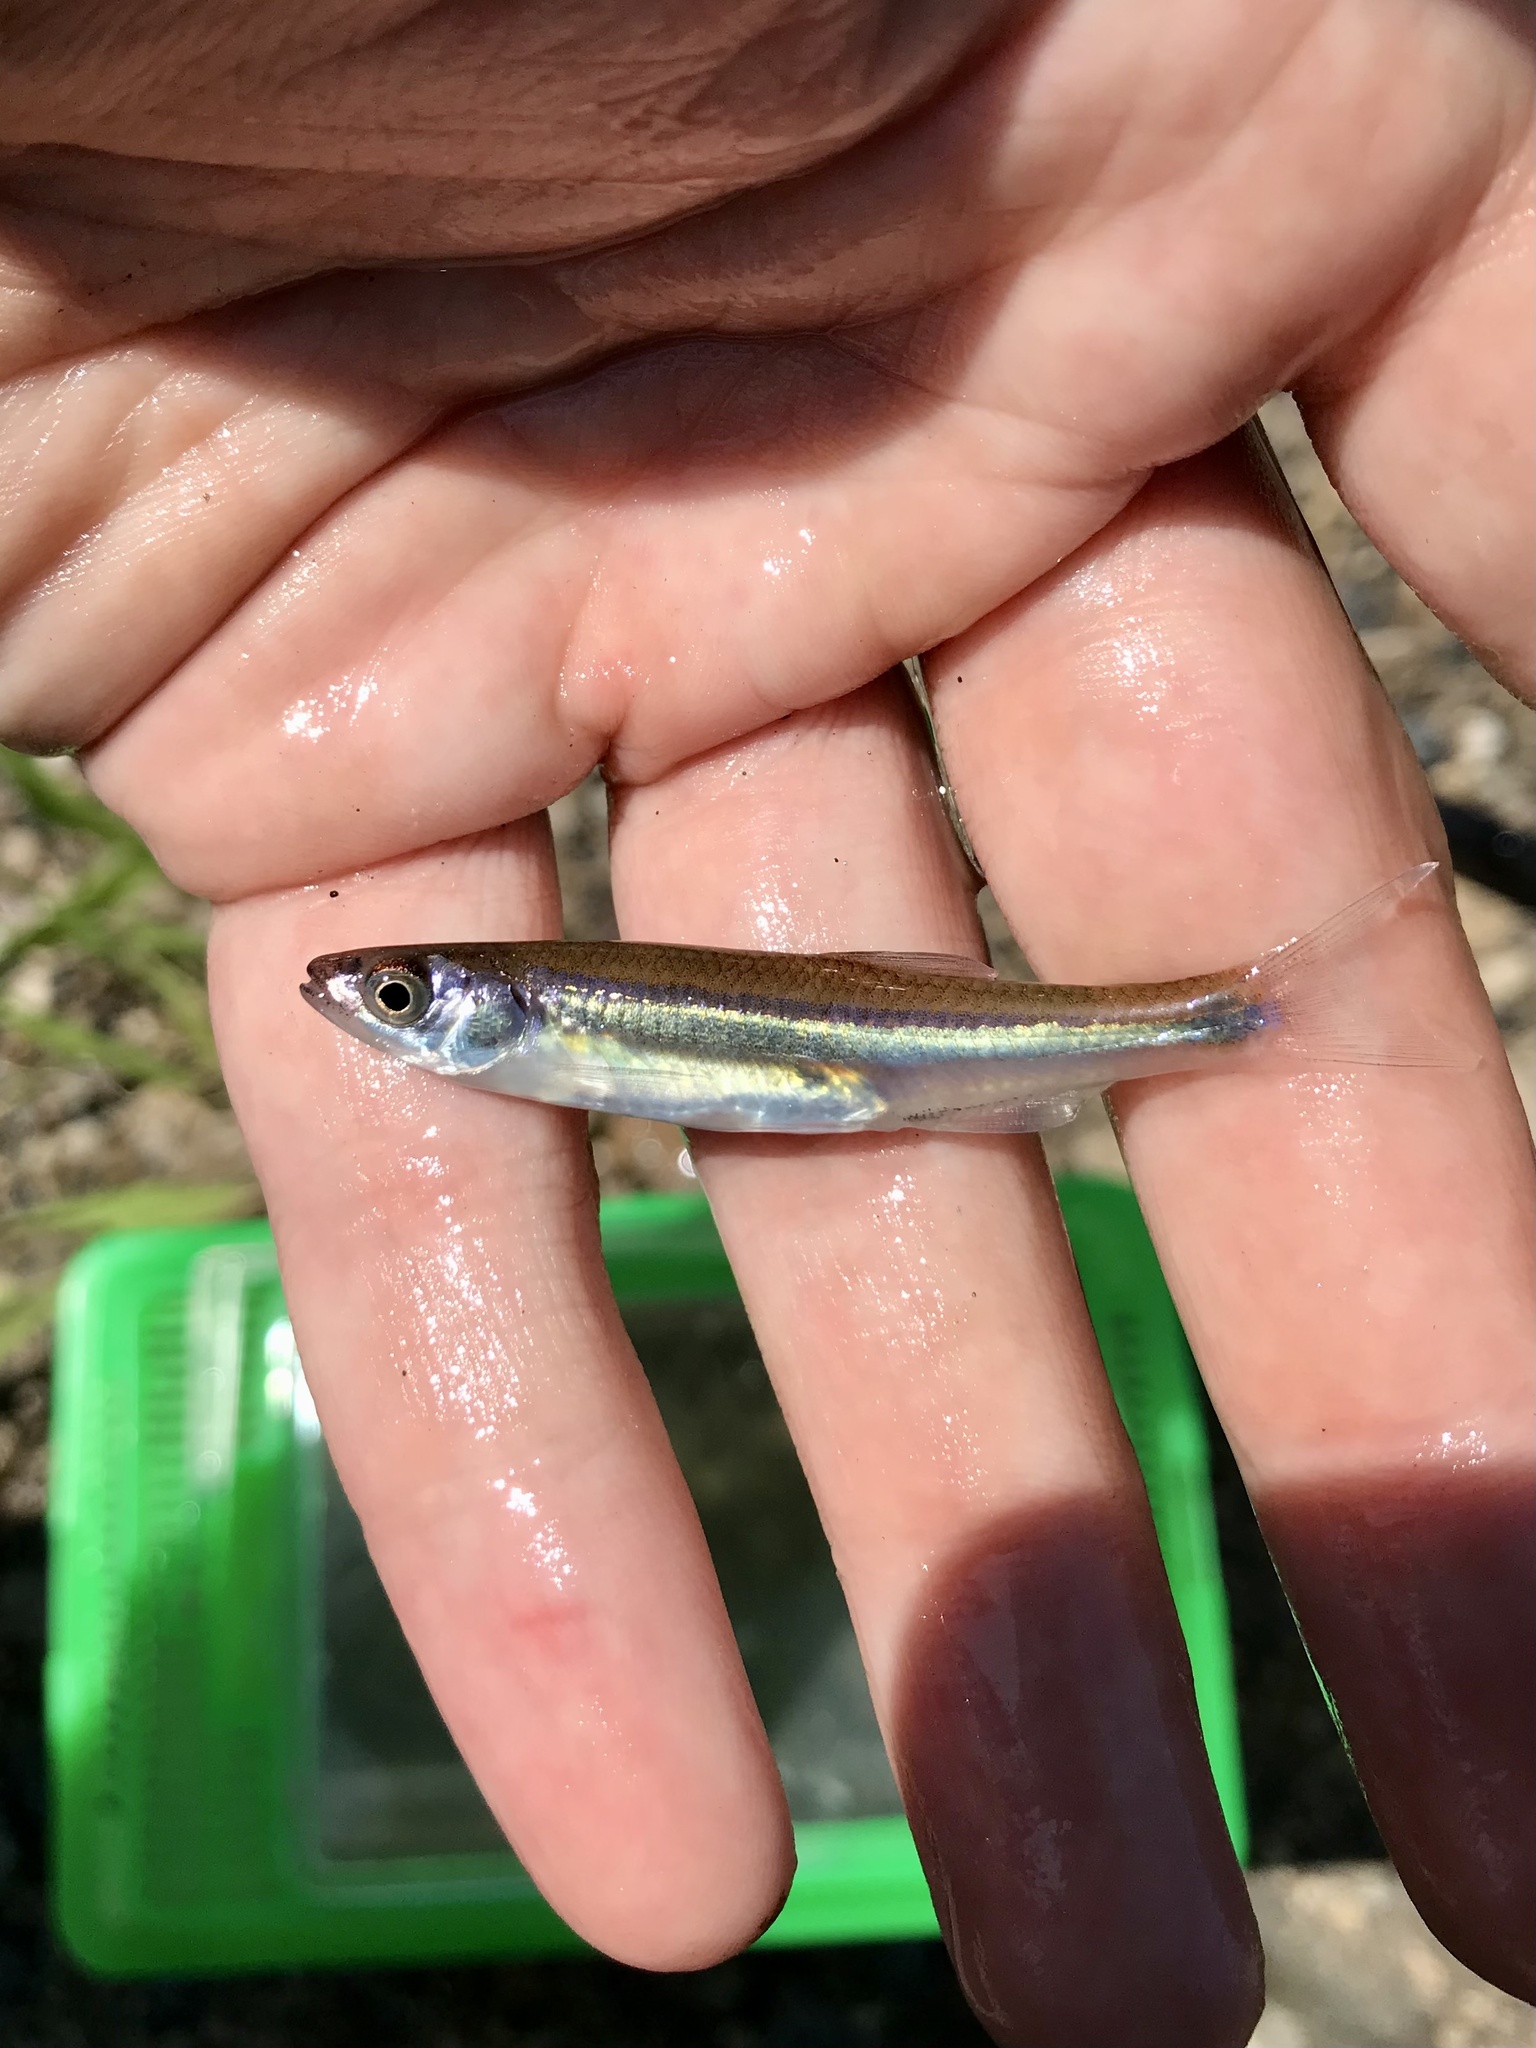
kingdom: Animalia
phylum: Chordata
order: Cypriniformes
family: Cyprinidae
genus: Notropis
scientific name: Notropis percobromus
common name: Carmine shiner
